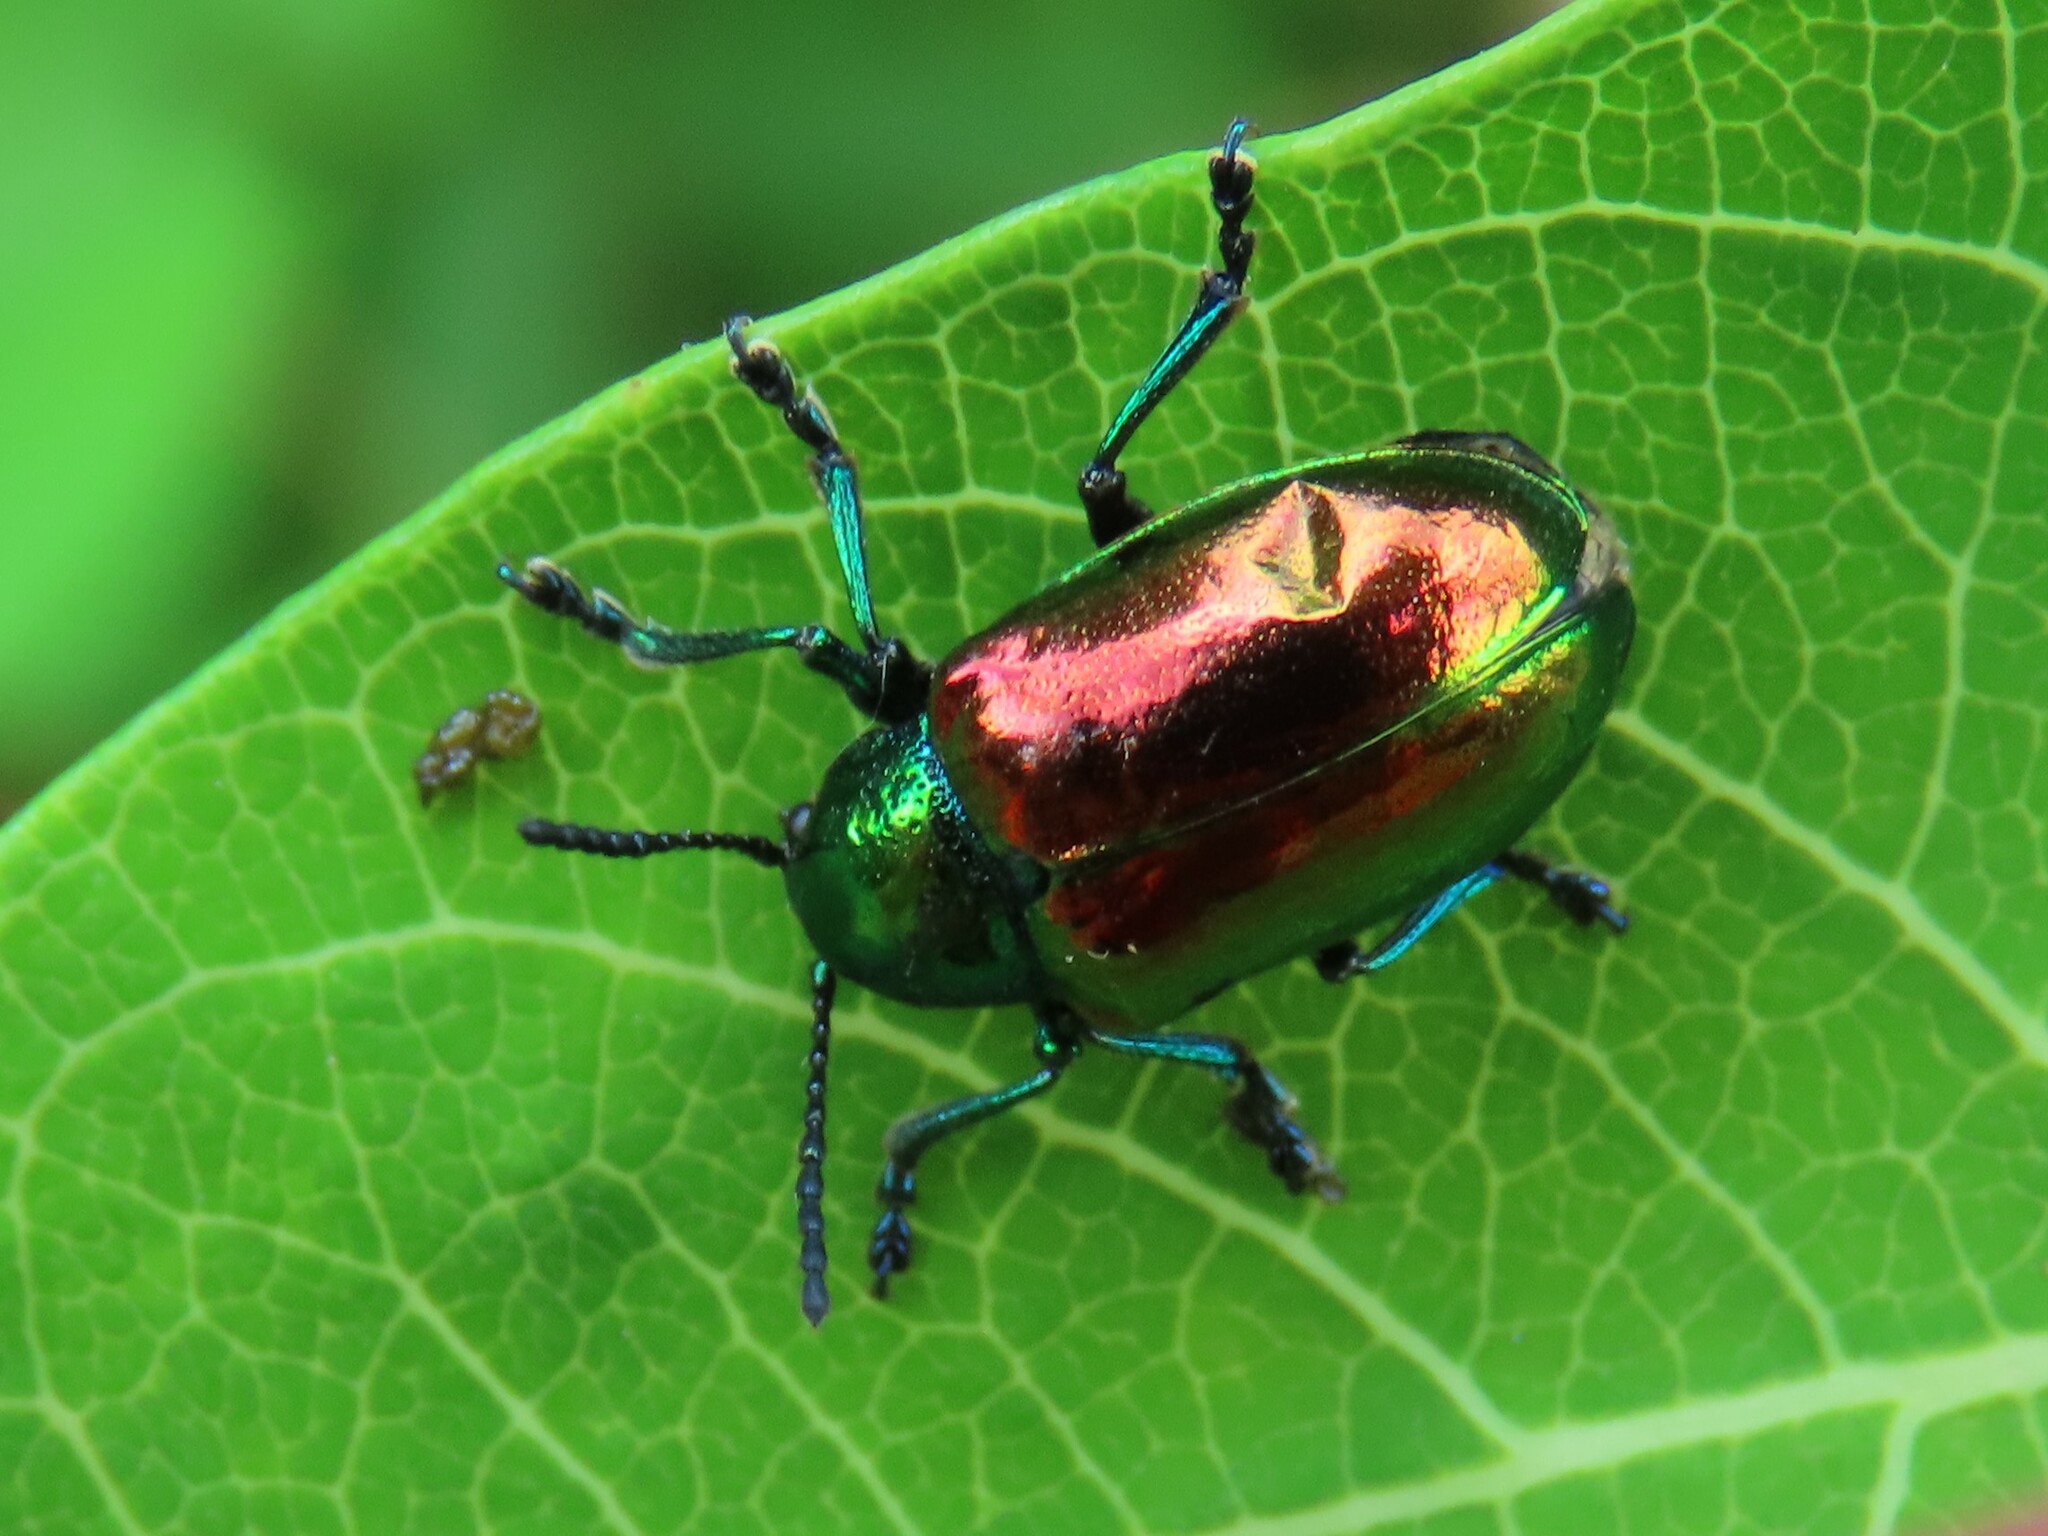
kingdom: Animalia
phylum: Arthropoda
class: Insecta
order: Coleoptera
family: Chrysomelidae
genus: Chrysochus
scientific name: Chrysochus auratus
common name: Dogbane leaf beetle
